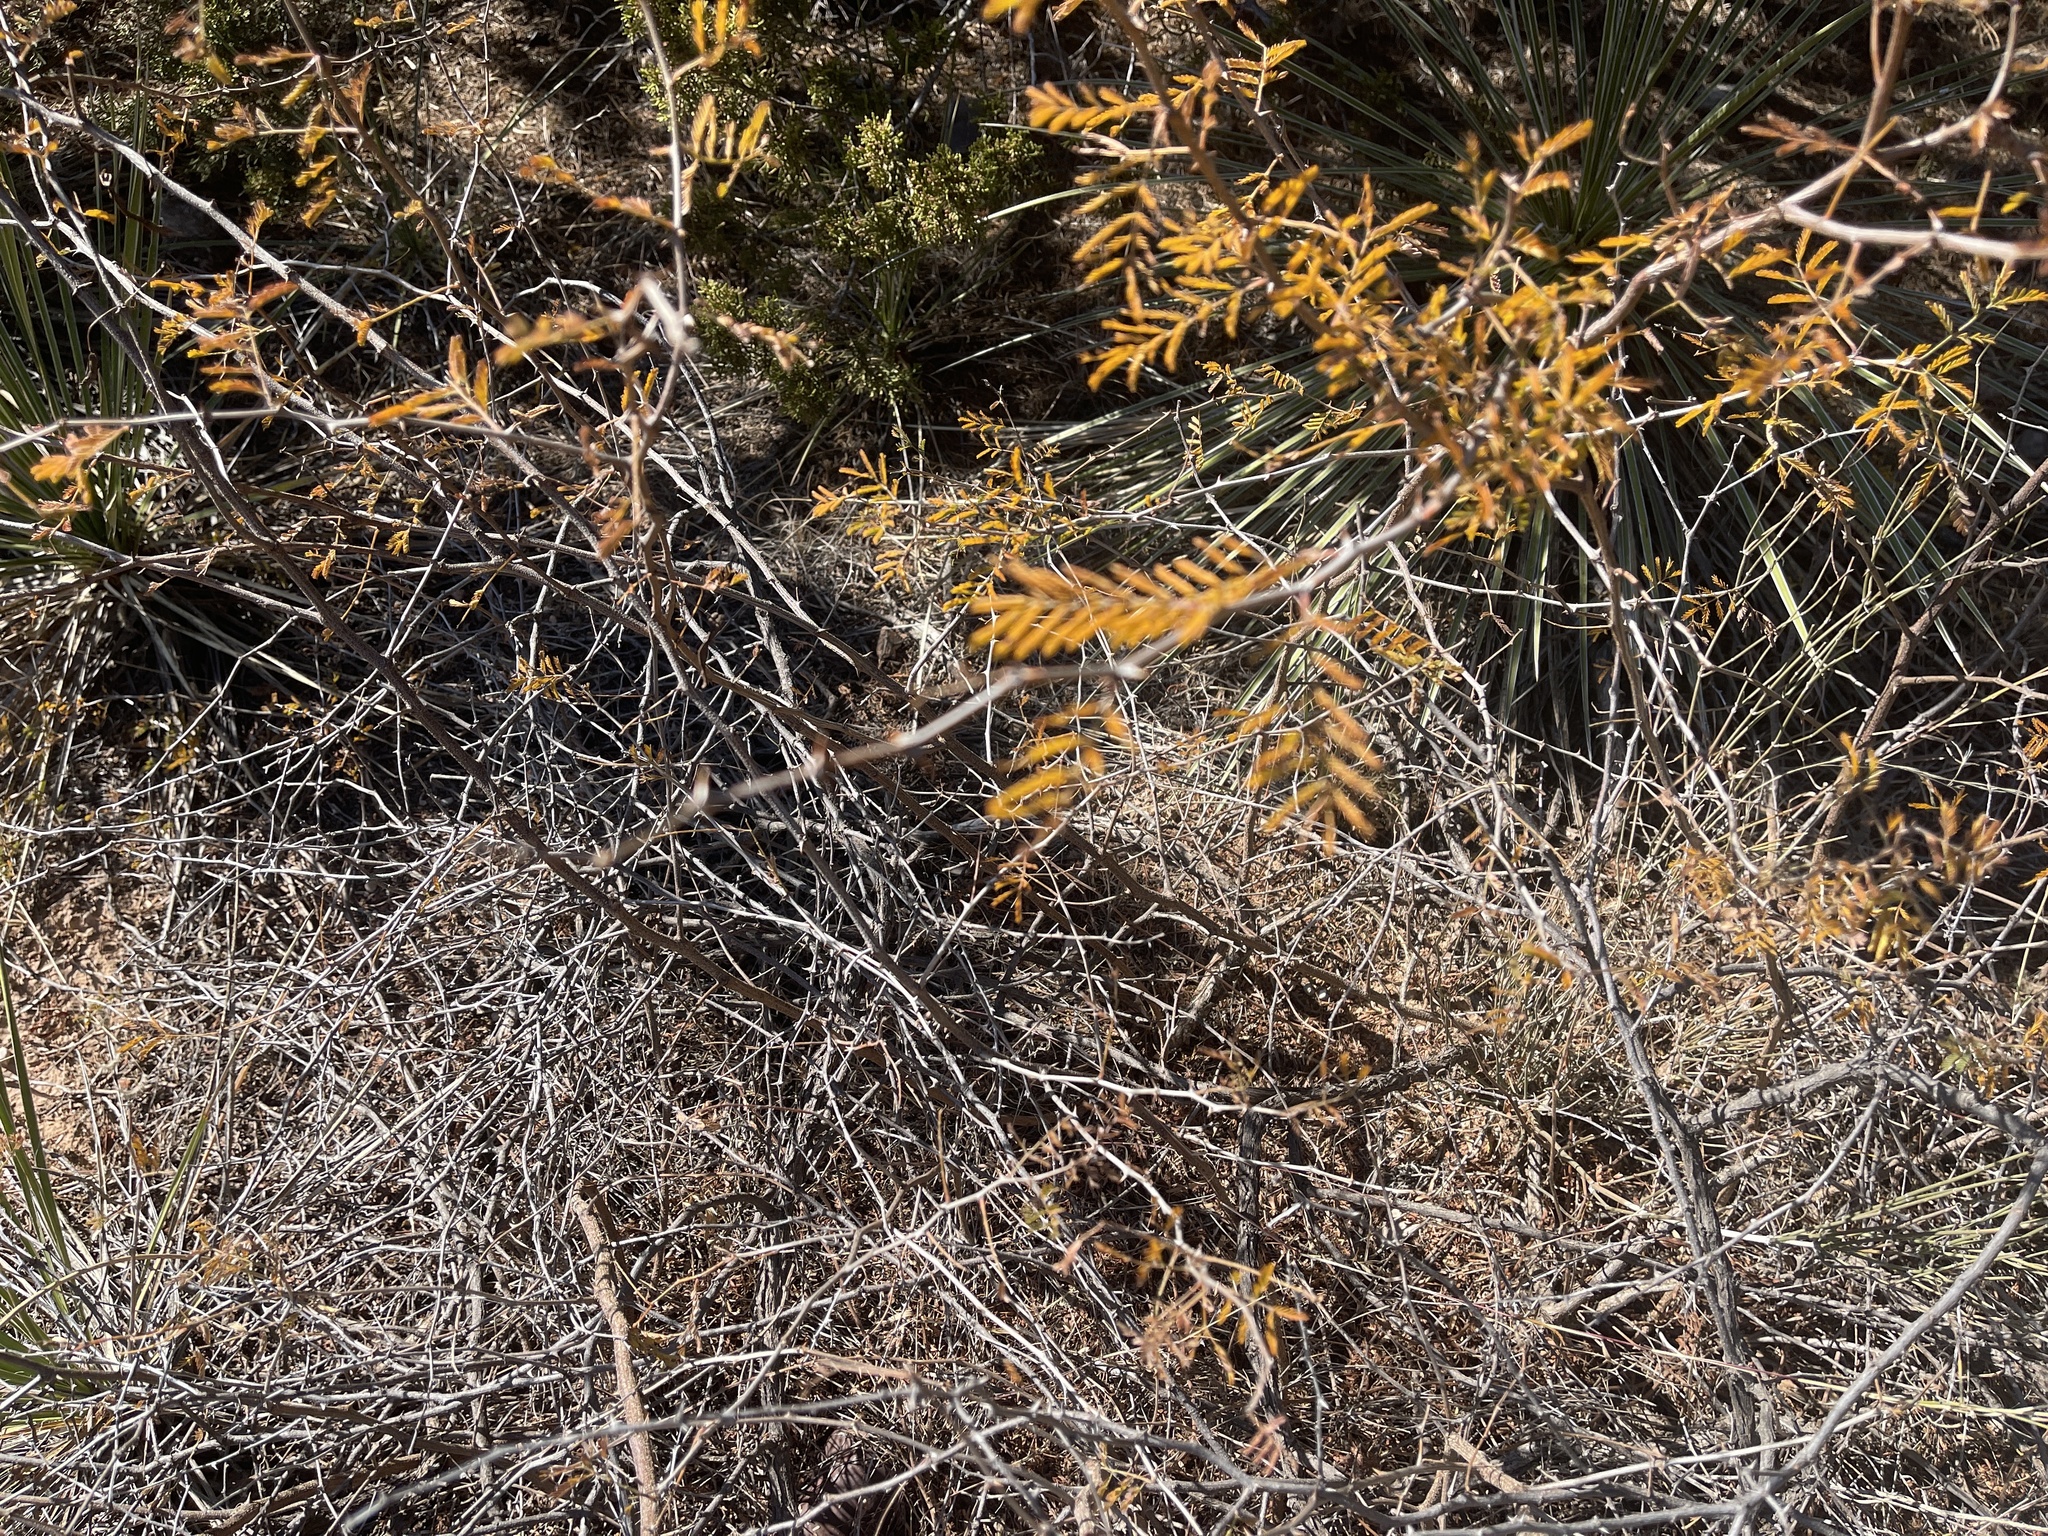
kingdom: Plantae
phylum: Tracheophyta
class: Magnoliopsida
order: Fabales
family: Fabaceae
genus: Mimosa
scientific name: Mimosa aculeaticarpa
